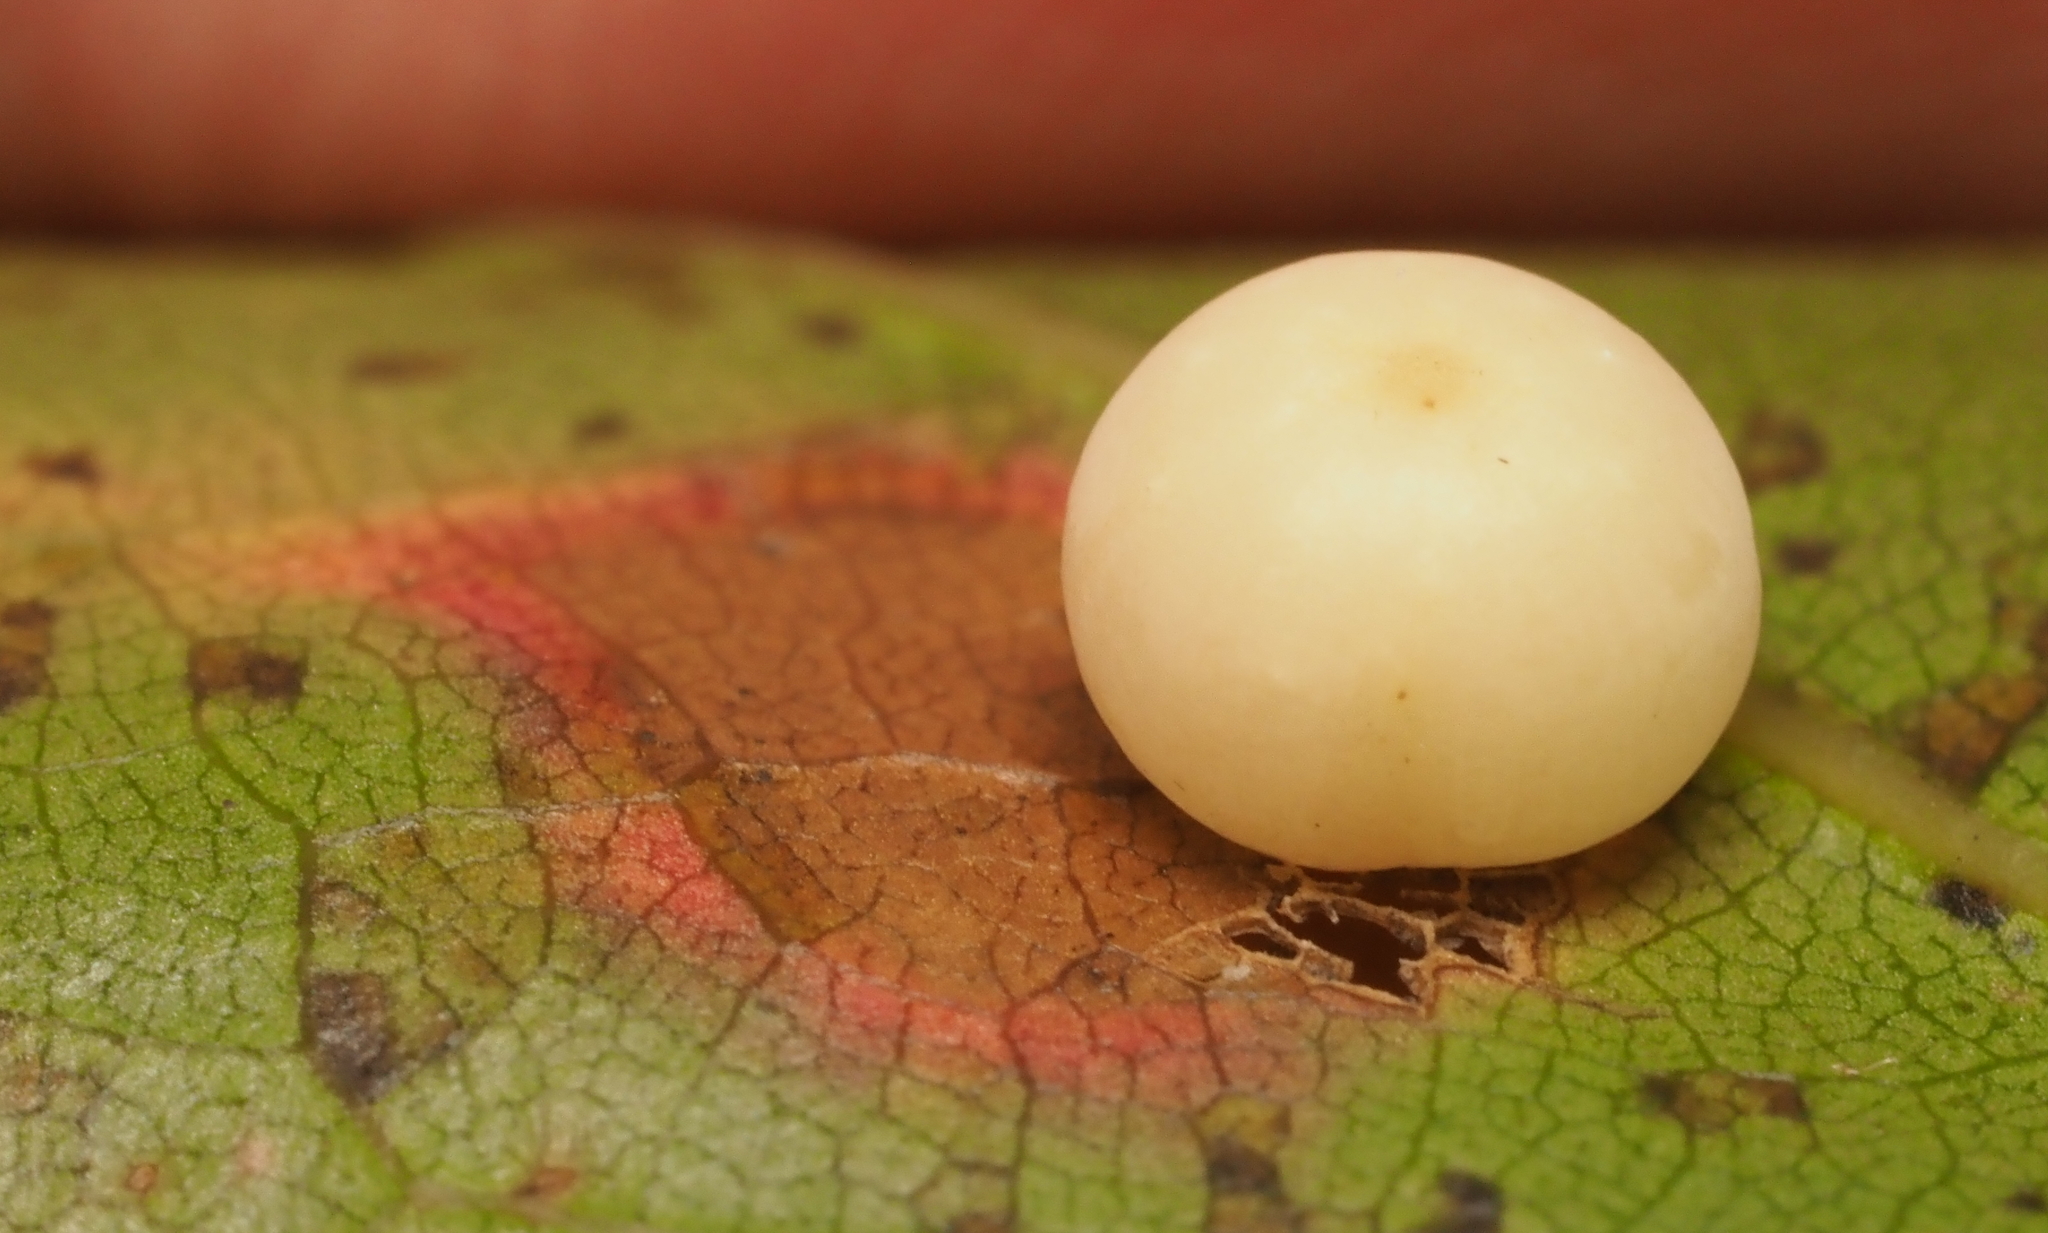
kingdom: Animalia
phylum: Arthropoda
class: Insecta
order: Hymenoptera
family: Cynipidae
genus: Zopheroteras
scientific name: Zopheroteras
